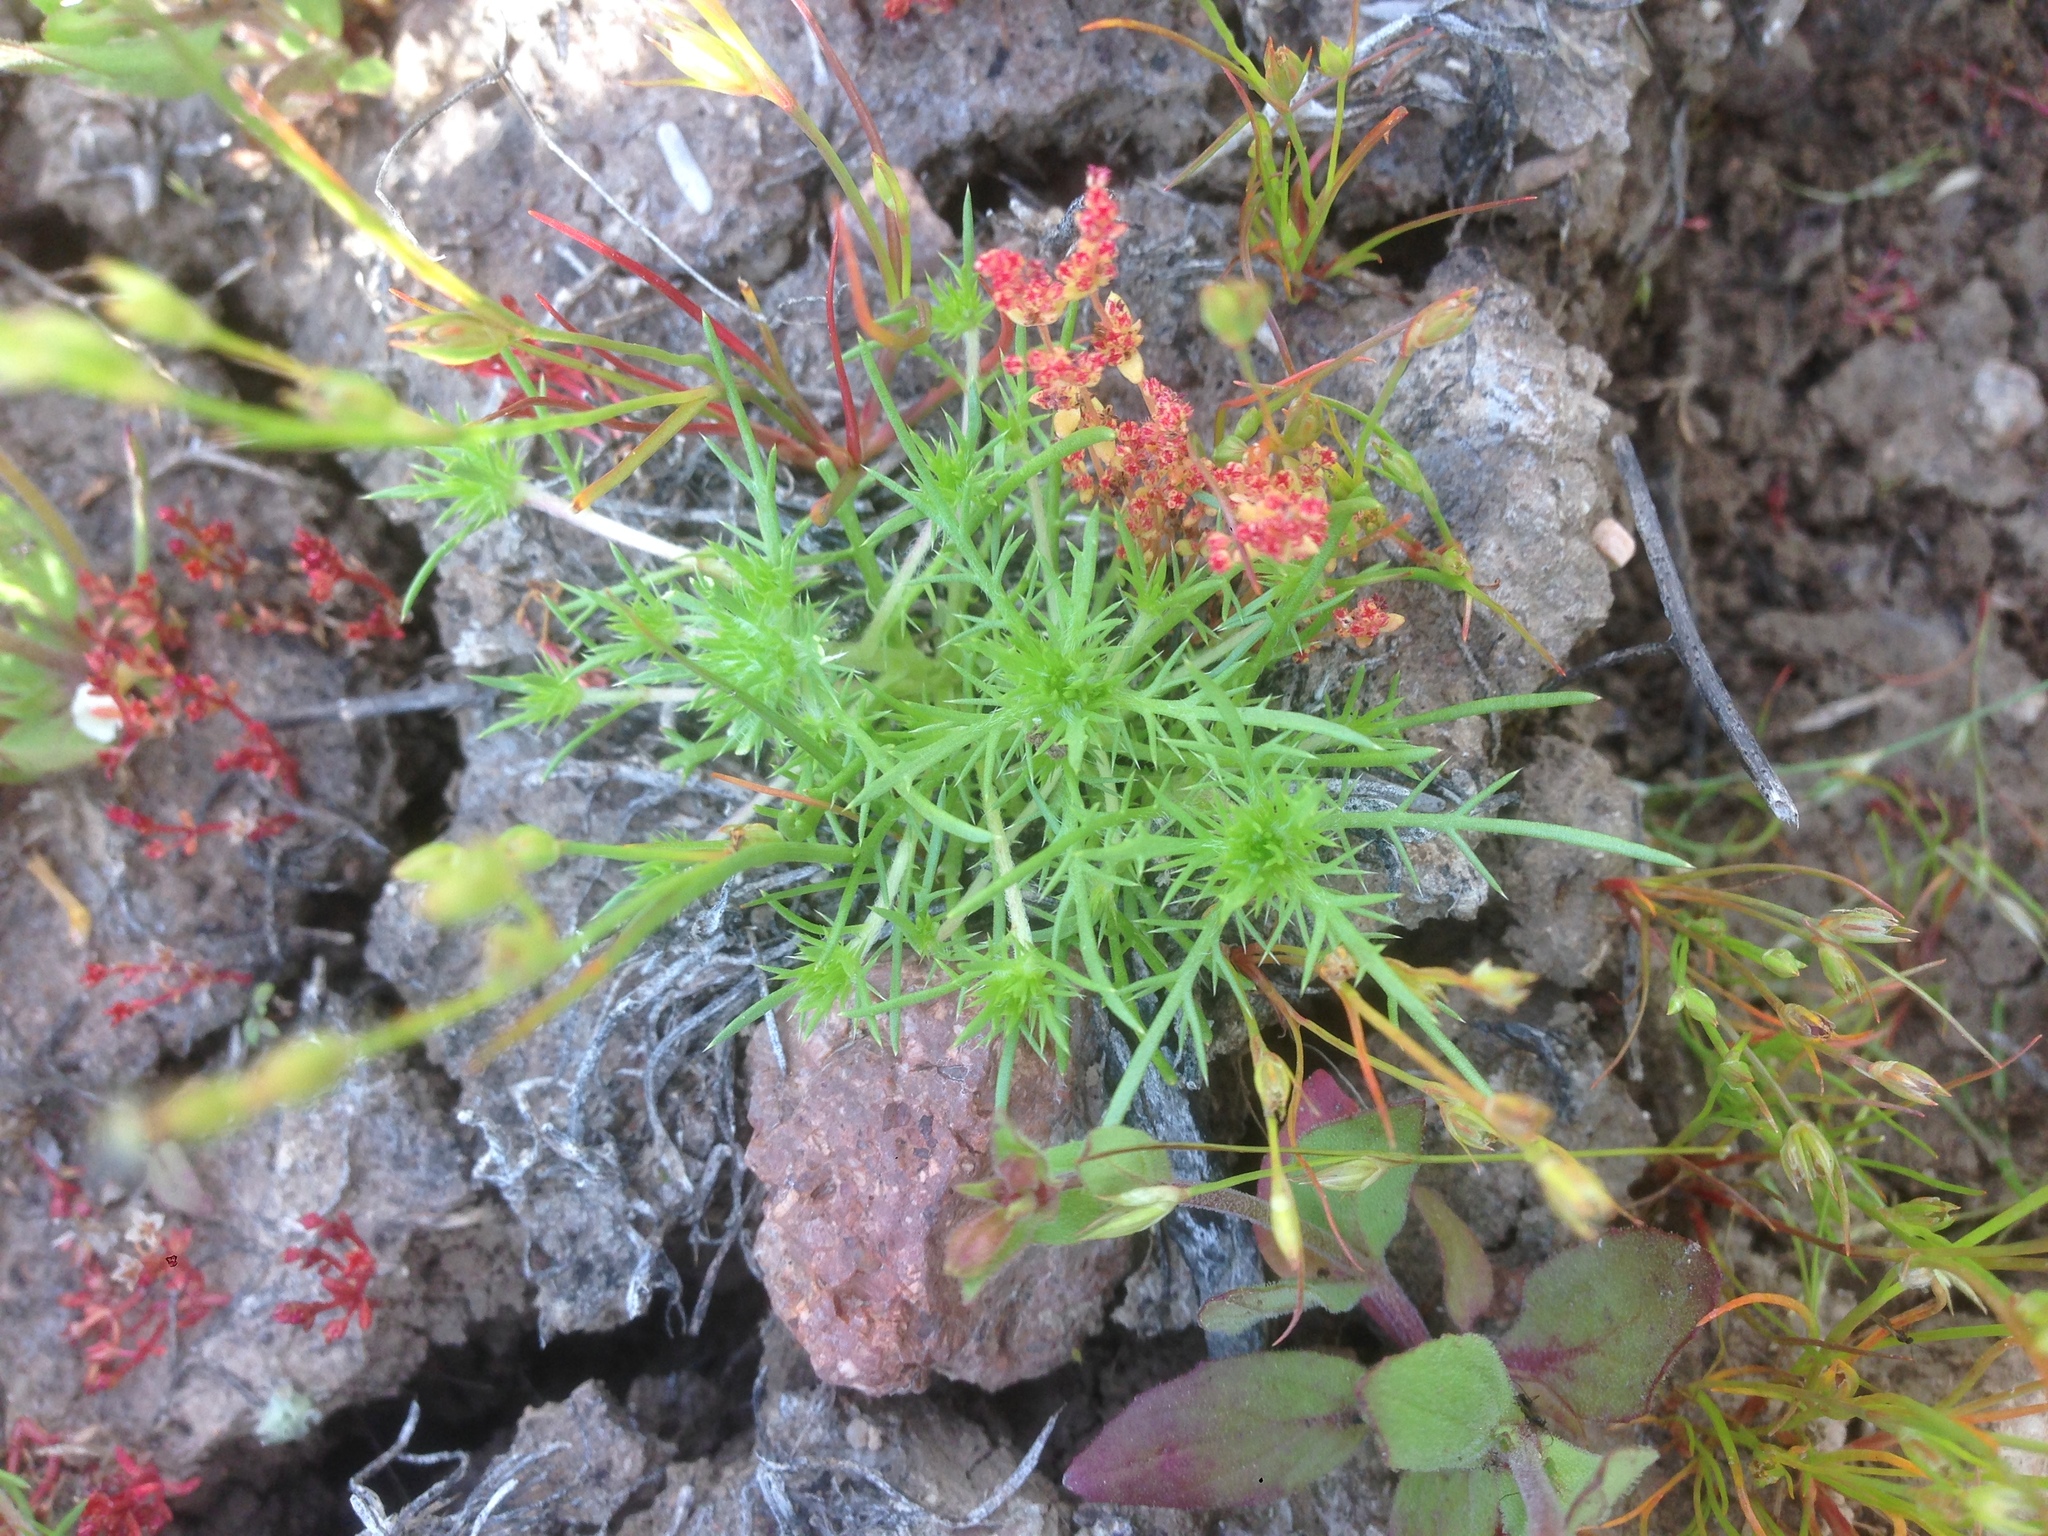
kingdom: Plantae
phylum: Tracheophyta
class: Magnoliopsida
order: Ericales
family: Polemoniaceae
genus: Navarretia
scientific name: Navarretia fossalis
